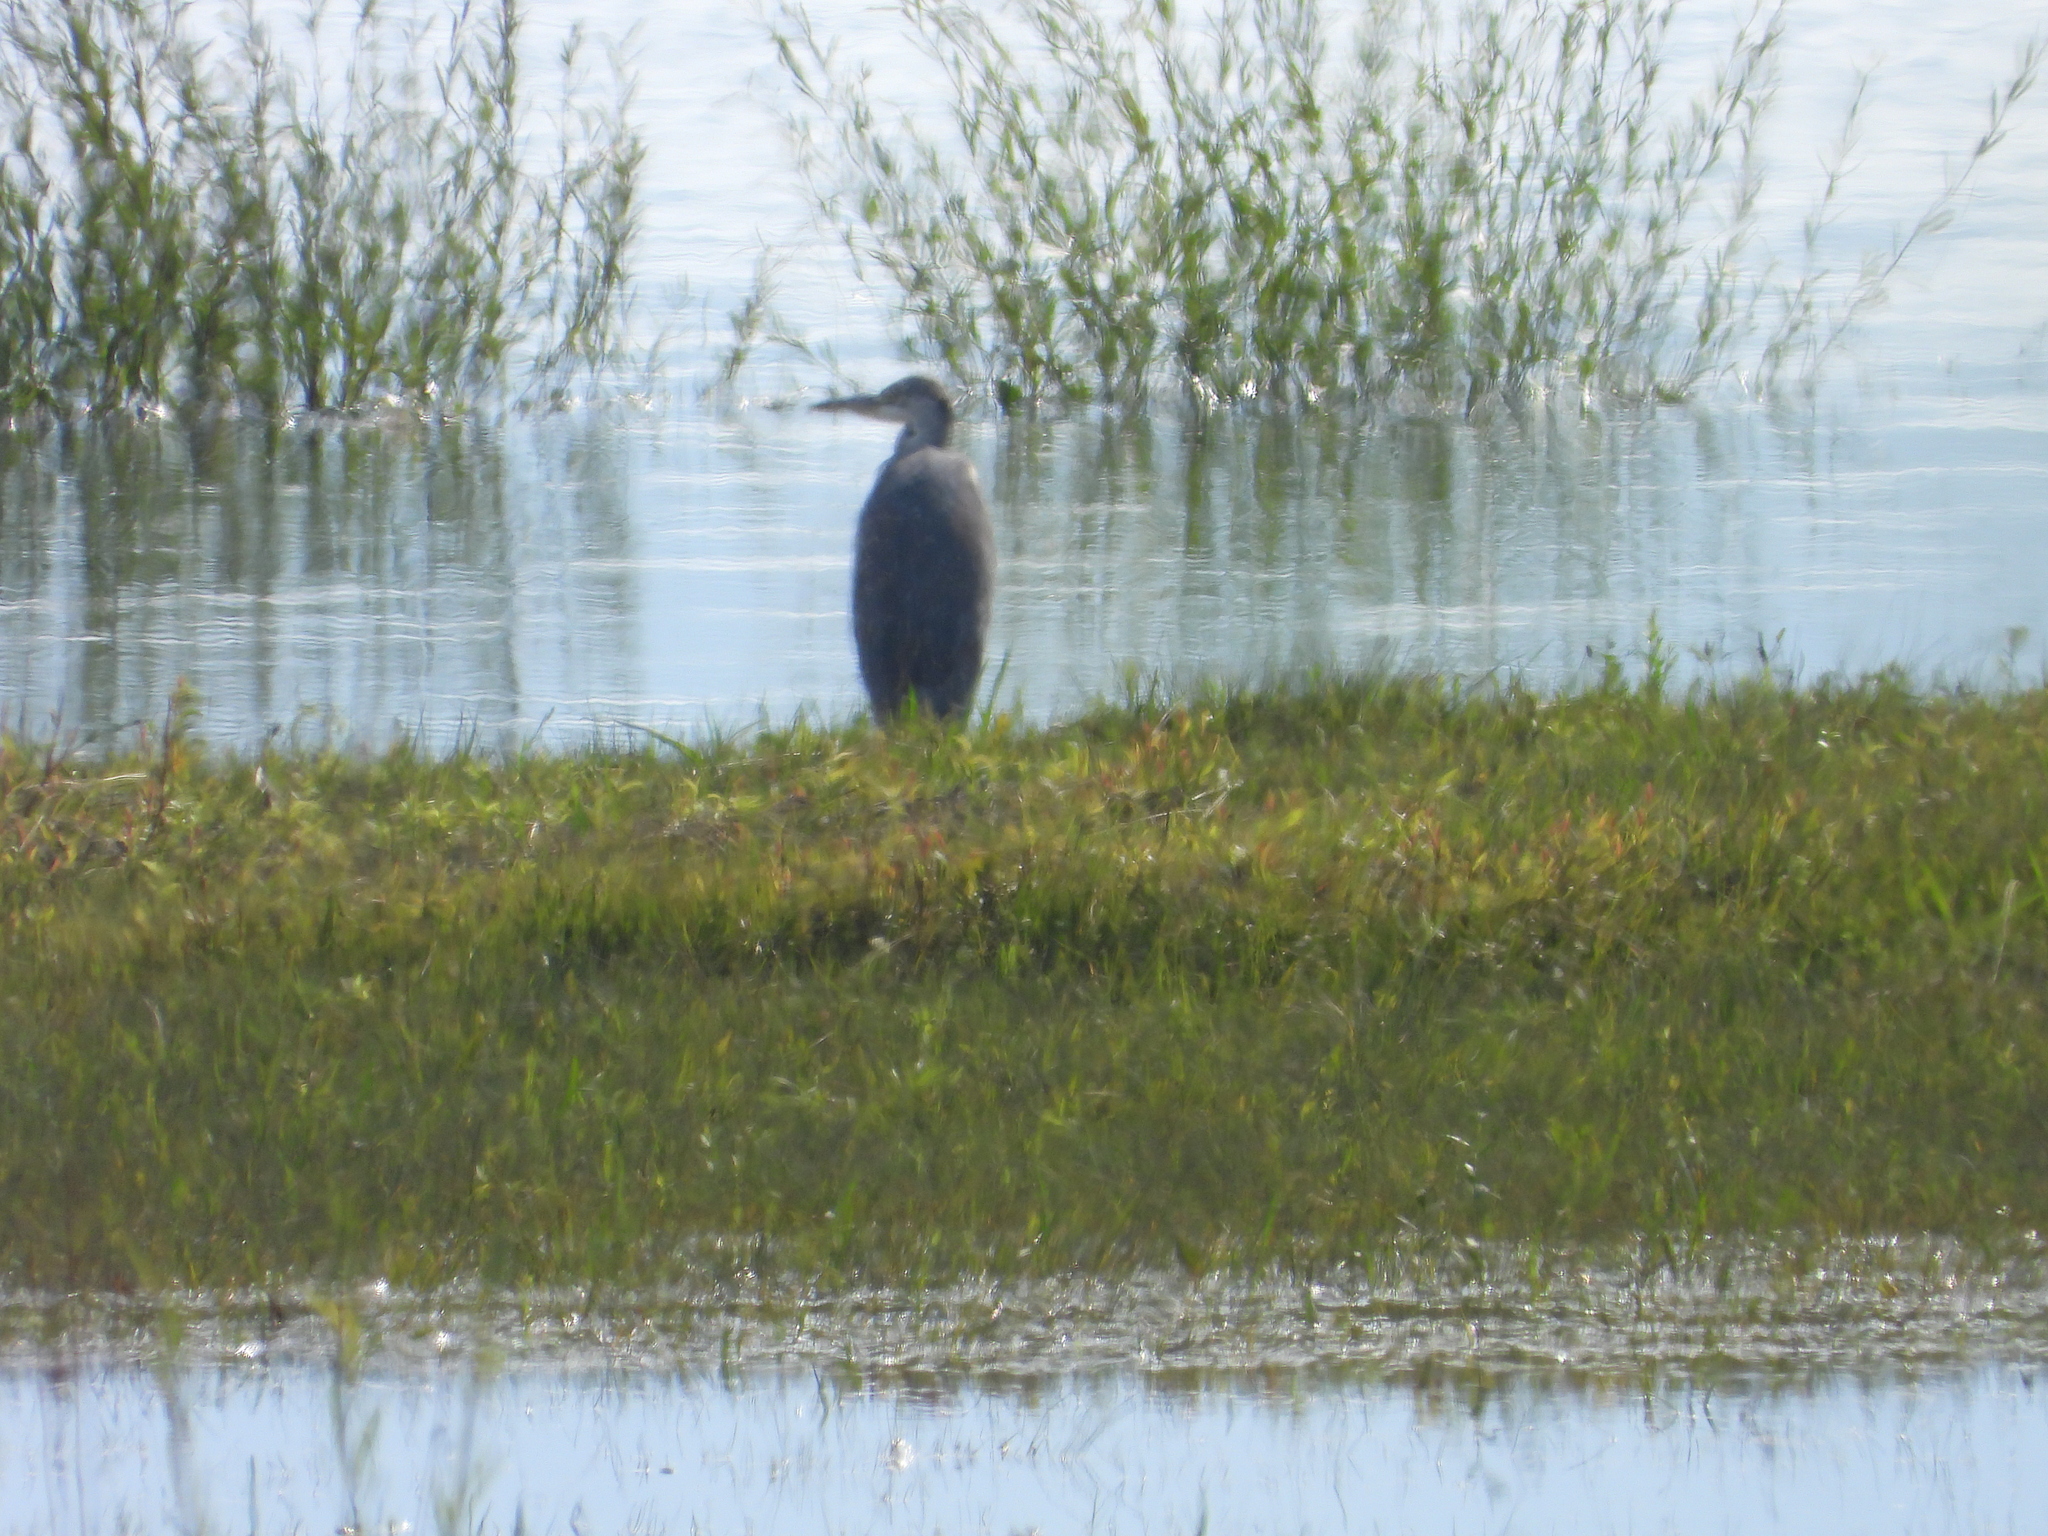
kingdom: Animalia
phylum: Chordata
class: Aves
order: Pelecaniformes
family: Ardeidae
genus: Ardea
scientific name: Ardea cinerea
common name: Grey heron
